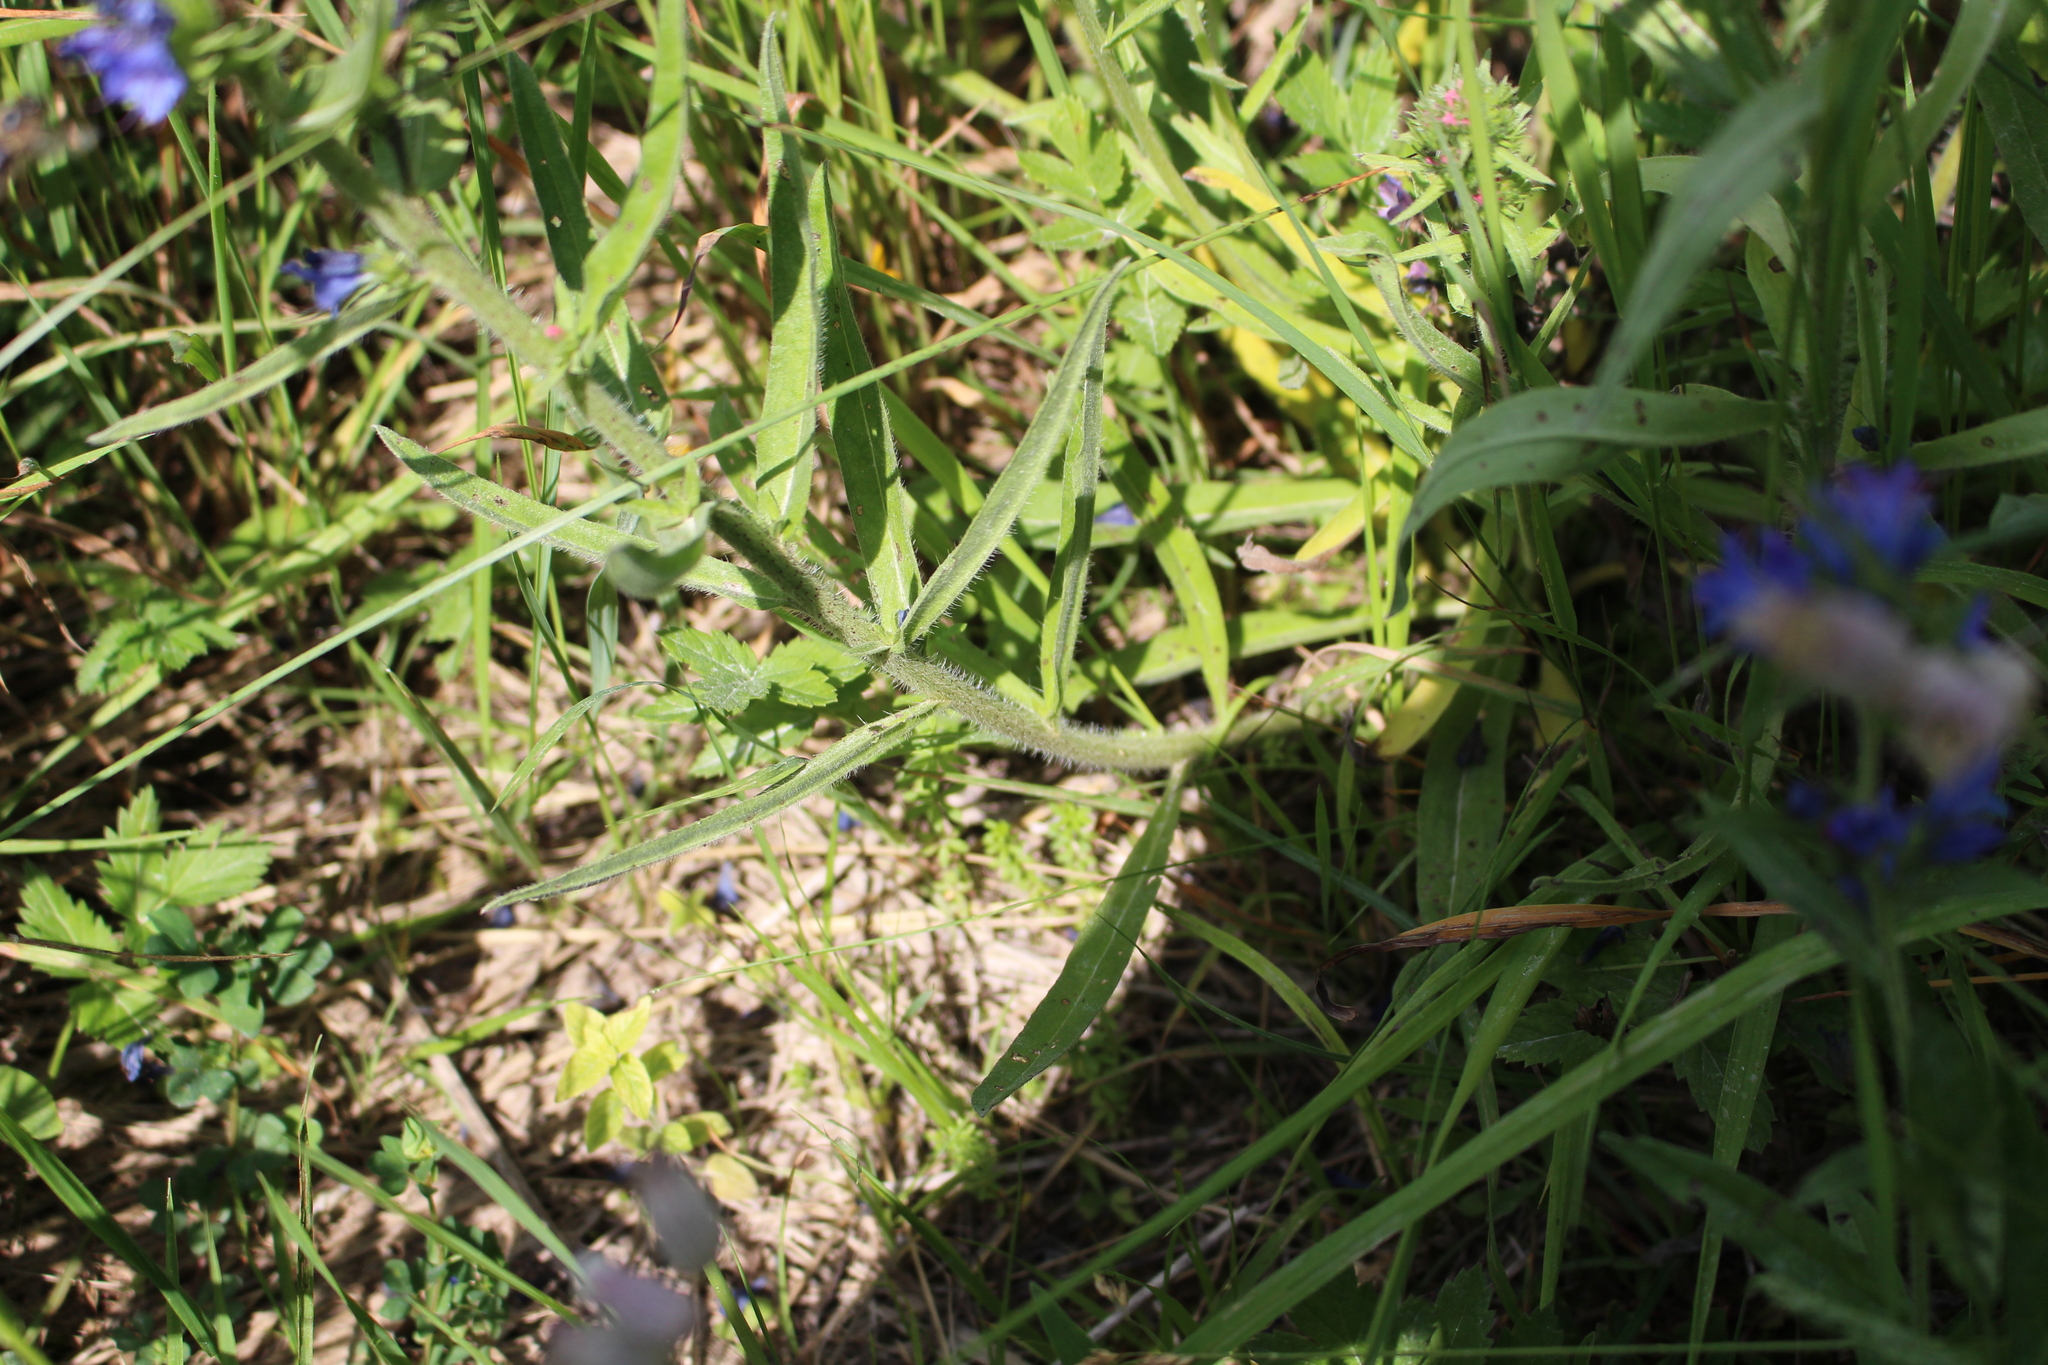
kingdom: Plantae
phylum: Tracheophyta
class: Magnoliopsida
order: Boraginales
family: Boraginaceae
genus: Echium
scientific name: Echium vulgare
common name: Common viper's bugloss
